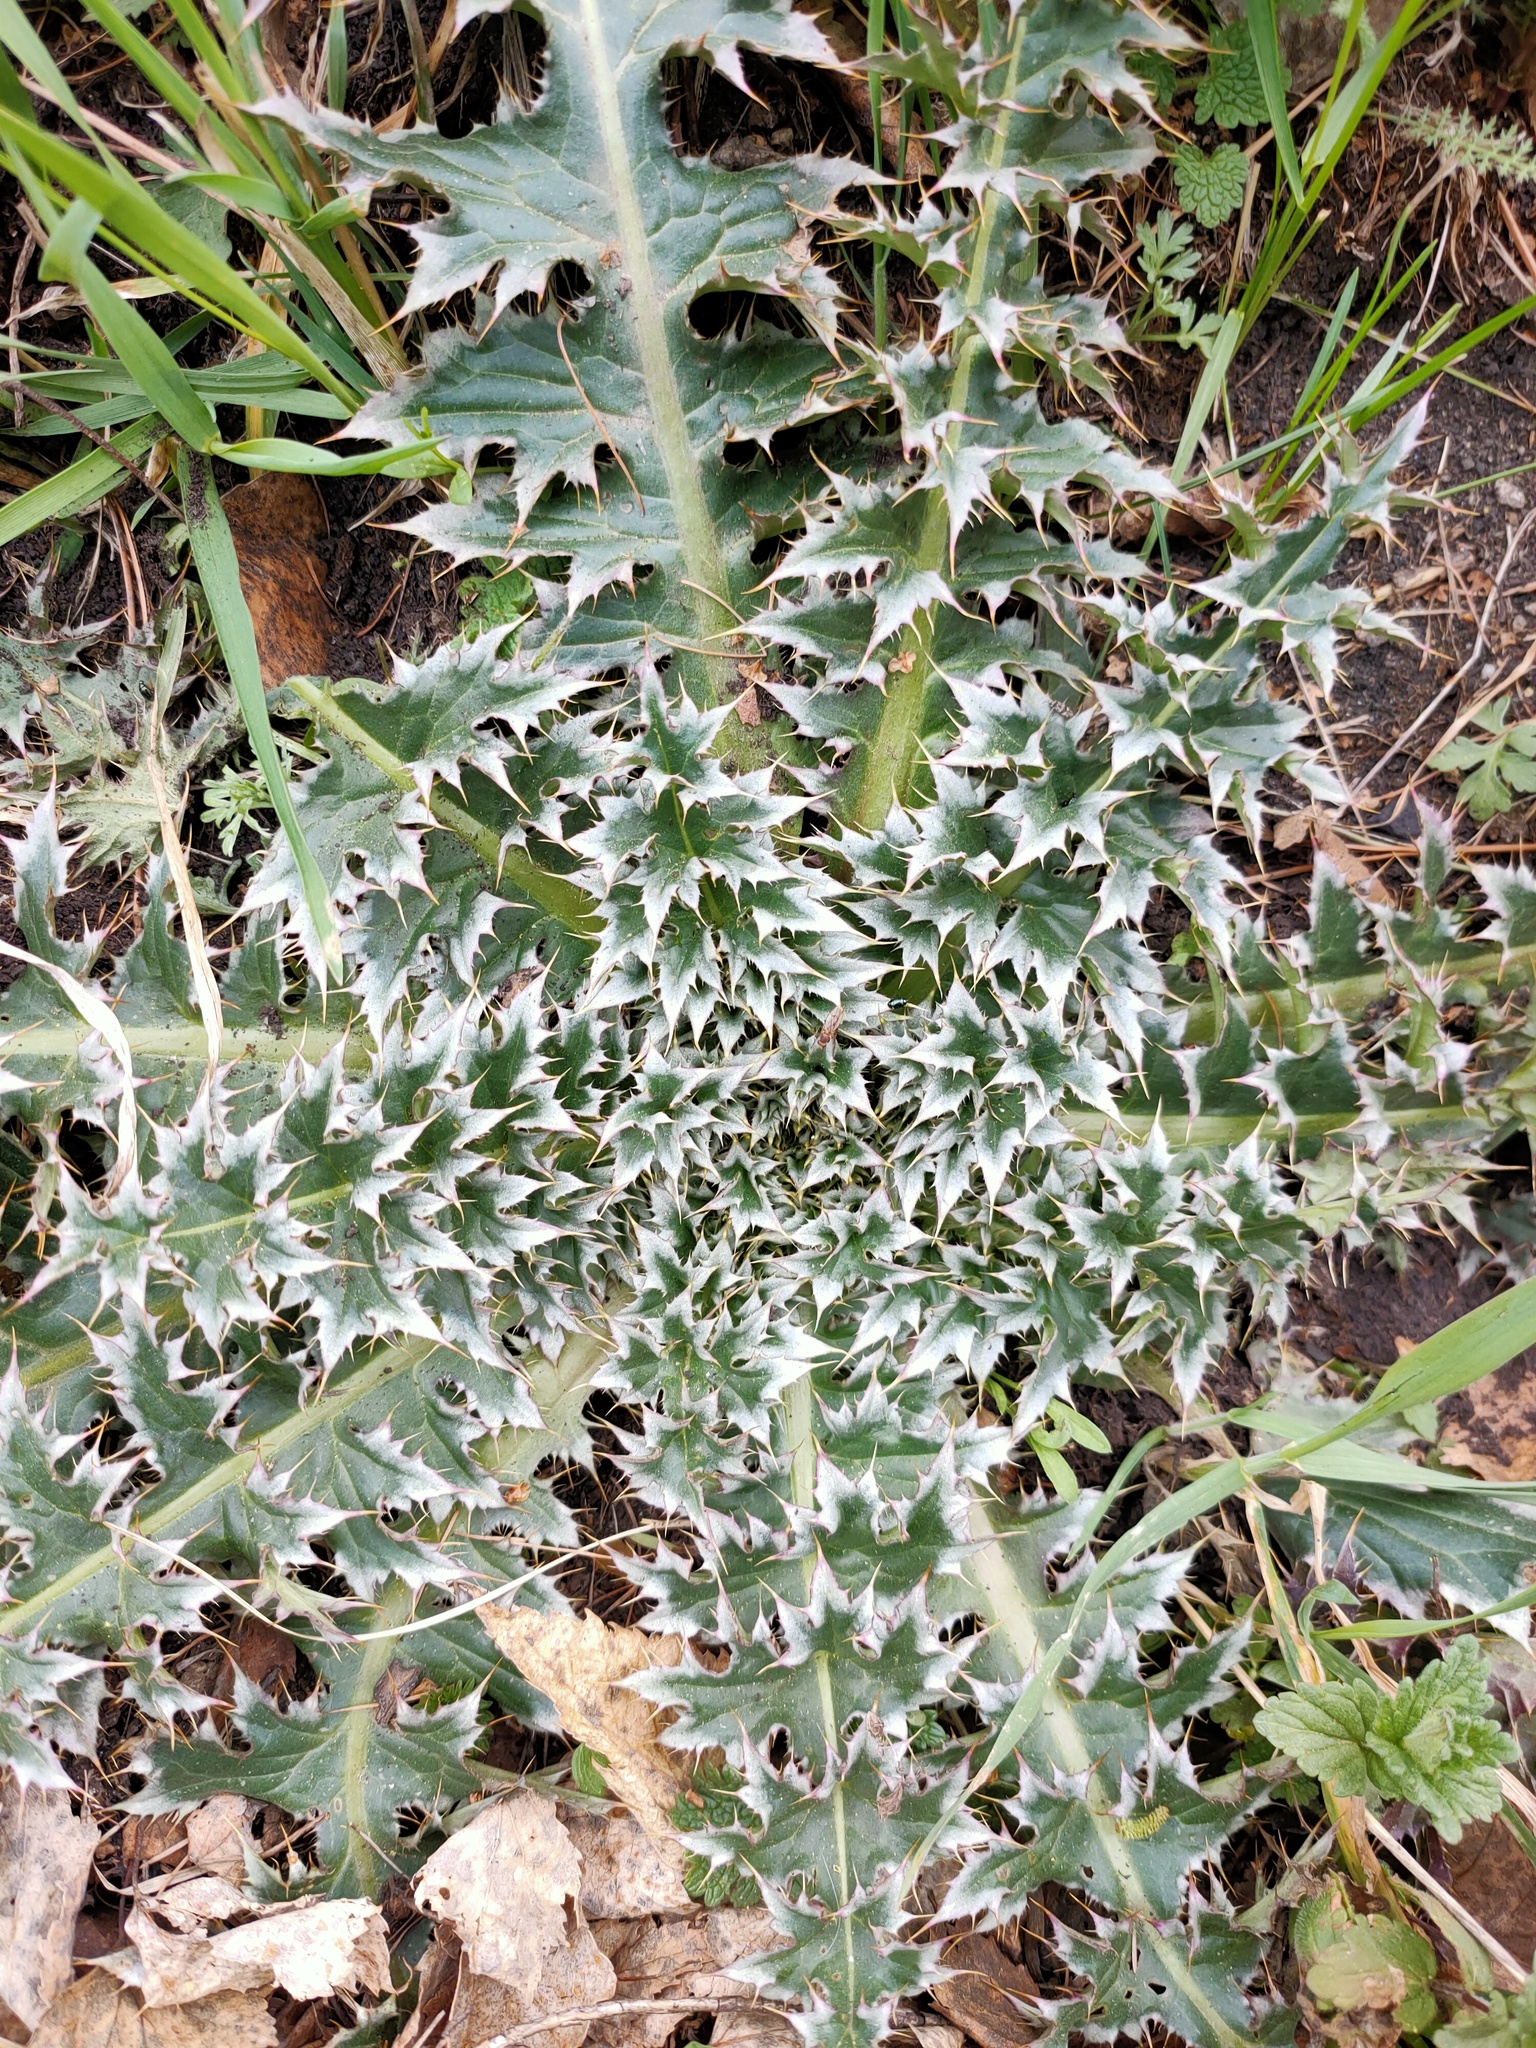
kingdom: Plantae
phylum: Tracheophyta
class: Magnoliopsida
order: Asterales
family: Asteraceae
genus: Carduus
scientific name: Carduus nutans
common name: Musk thistle
